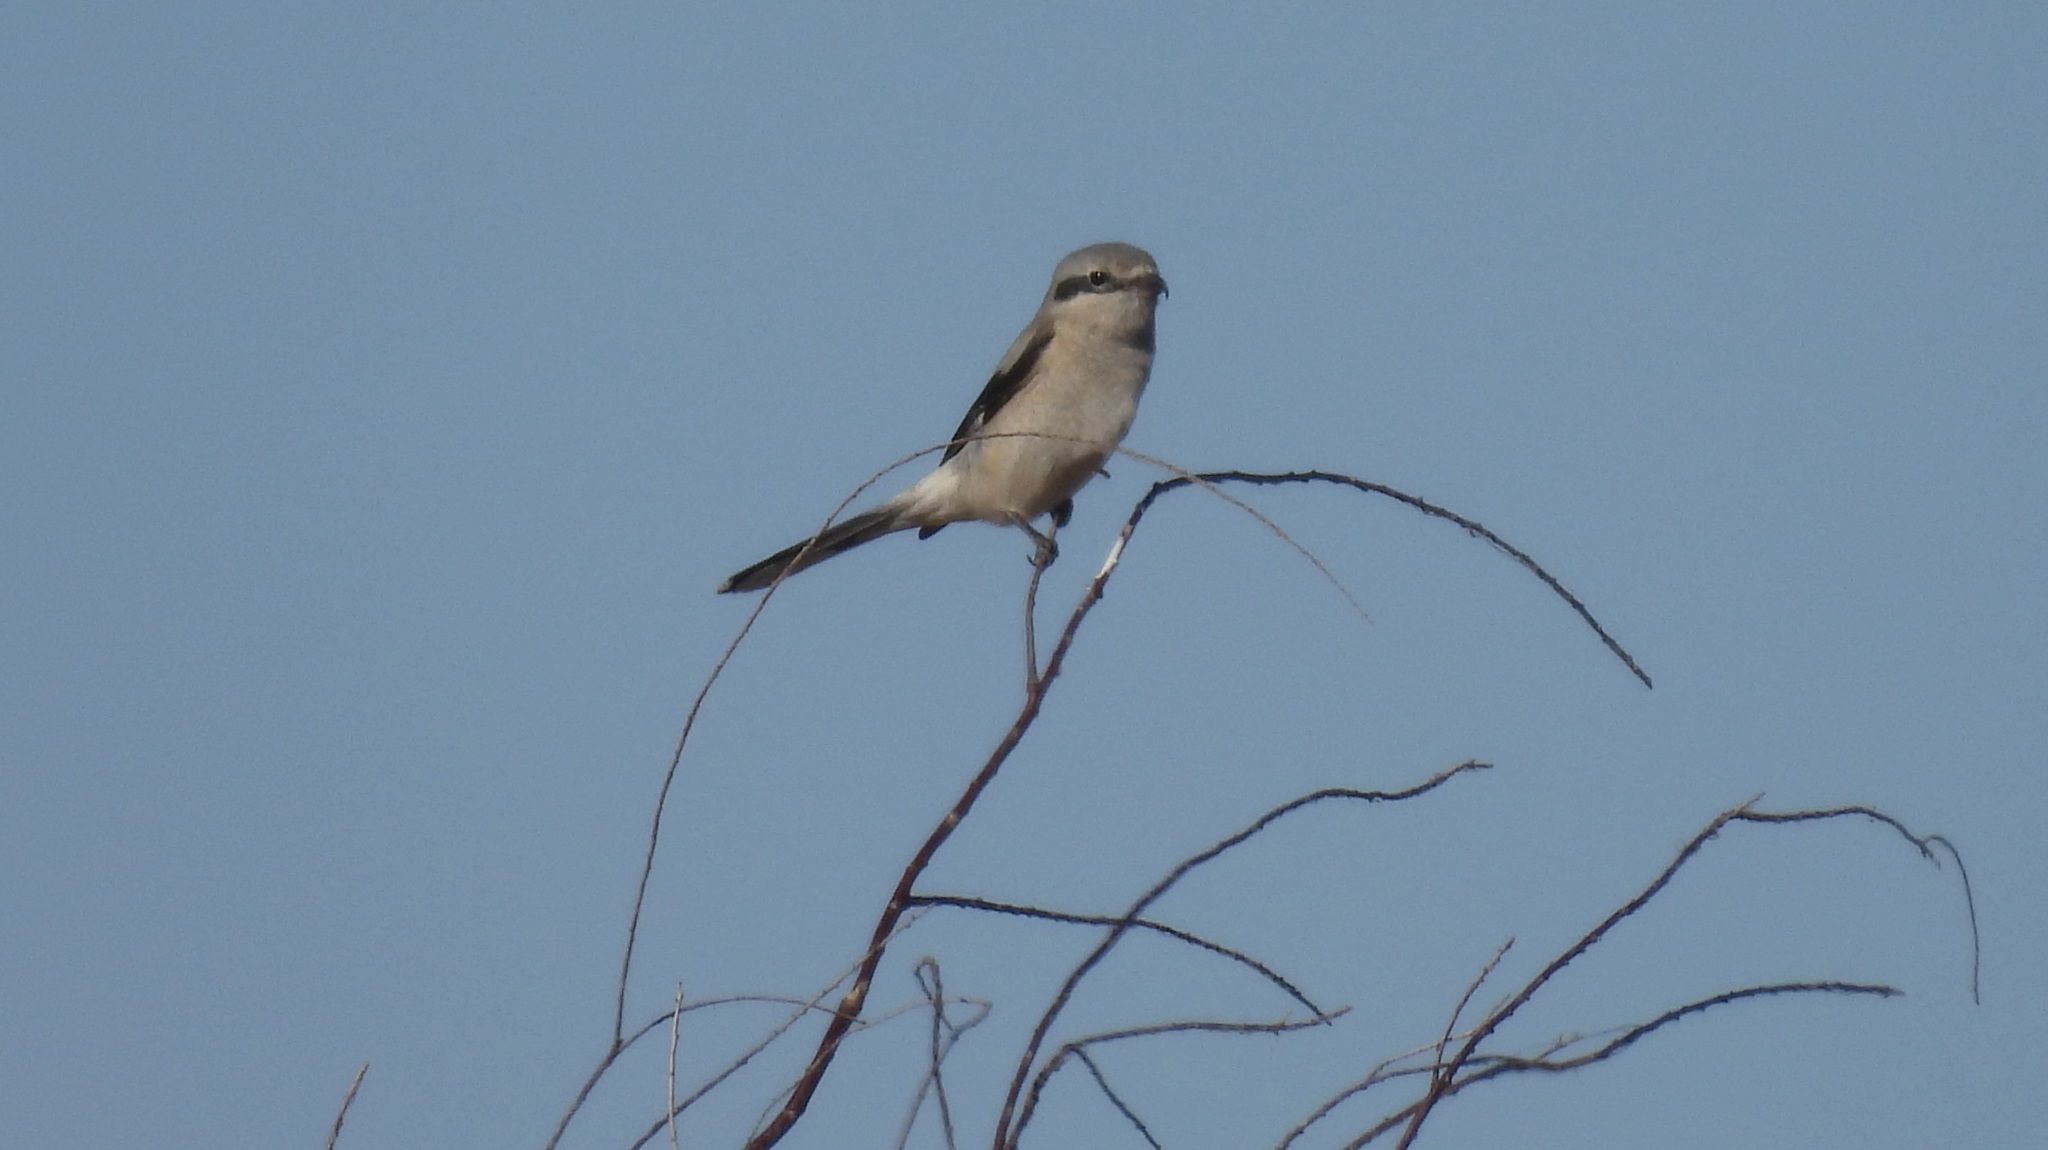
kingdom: Animalia
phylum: Chordata
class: Aves
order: Passeriformes
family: Laniidae
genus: Lanius
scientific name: Lanius borealis
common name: Northern shrike
